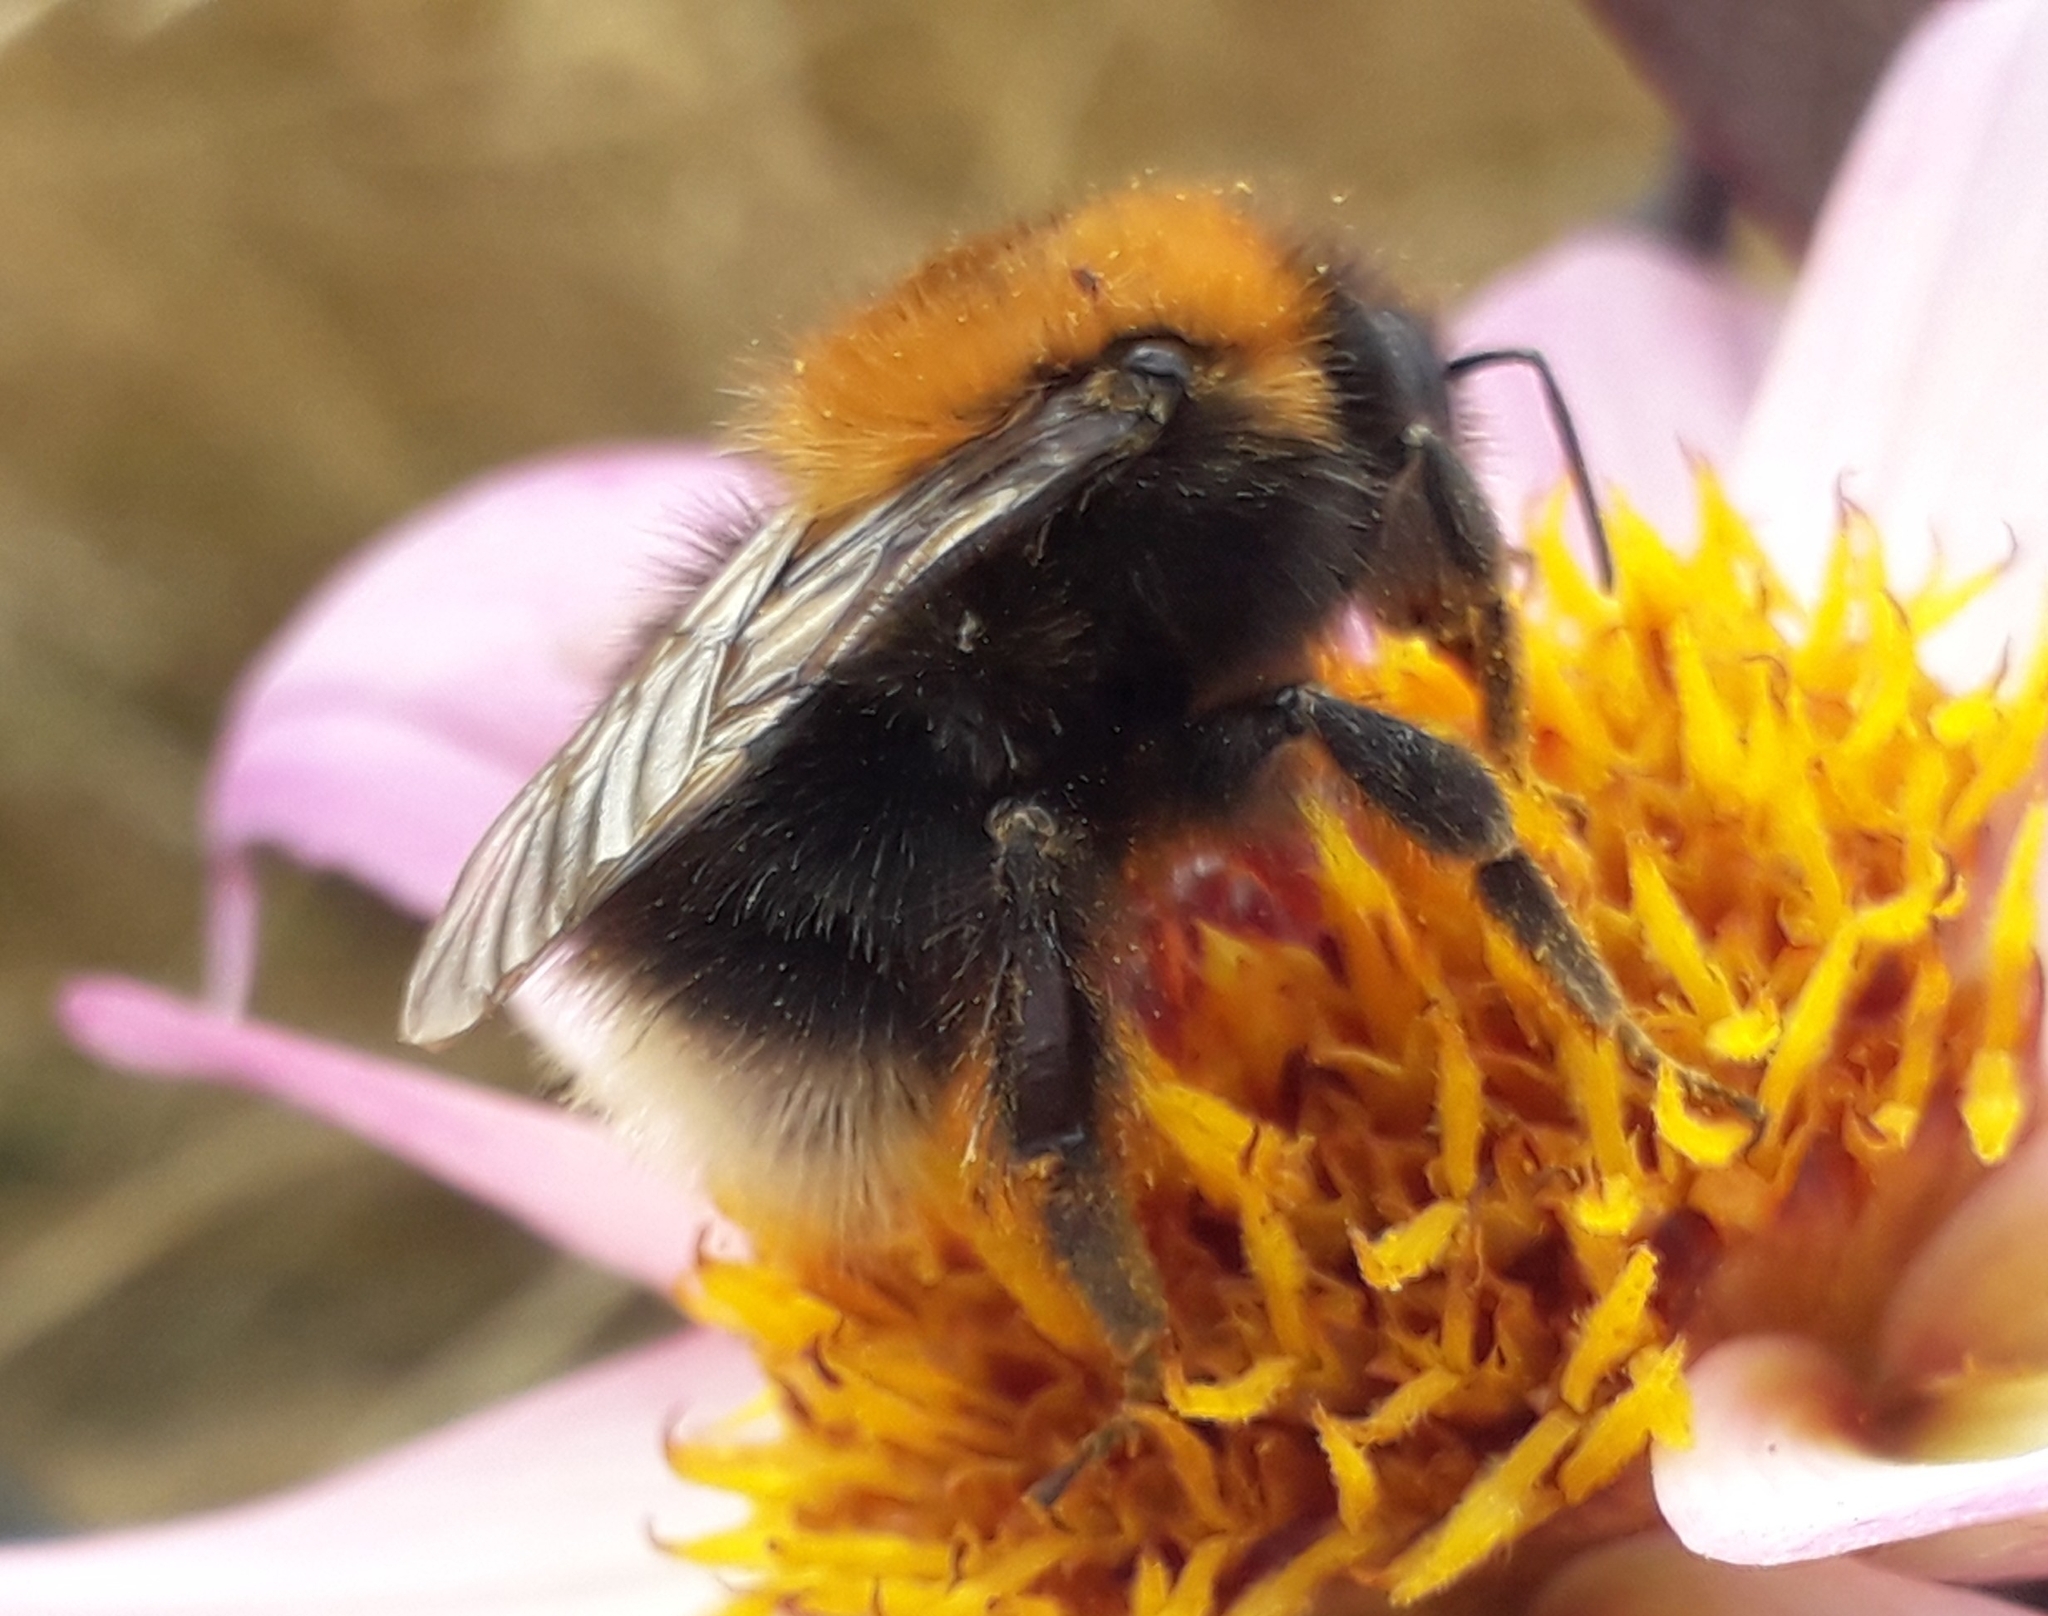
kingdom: Animalia
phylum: Arthropoda
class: Insecta
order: Hymenoptera
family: Apidae
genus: Bombus
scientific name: Bombus hypnorum
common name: New garden bumblebee
